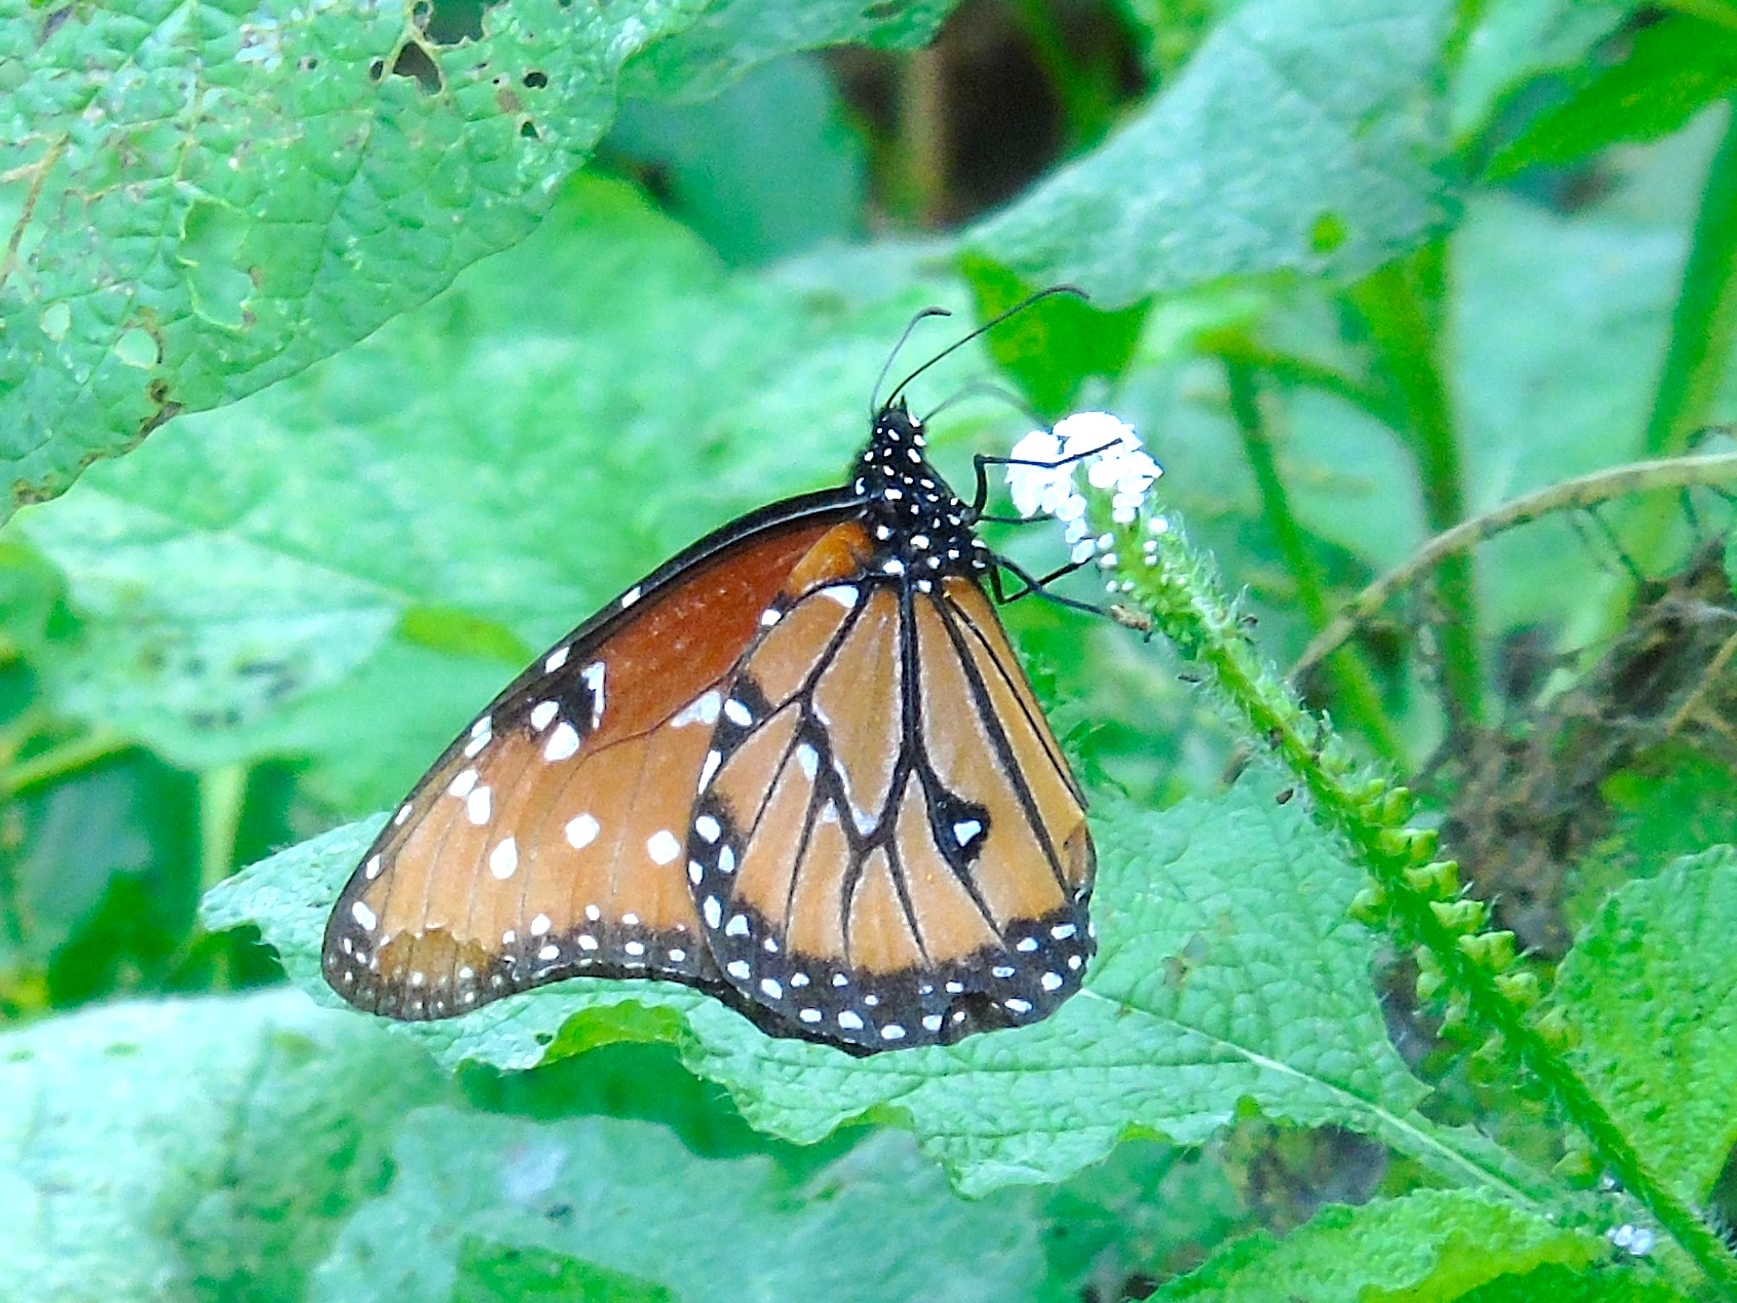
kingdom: Animalia
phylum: Arthropoda
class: Insecta
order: Lepidoptera
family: Nymphalidae
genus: Danaus
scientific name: Danaus gilippus
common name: Queen
